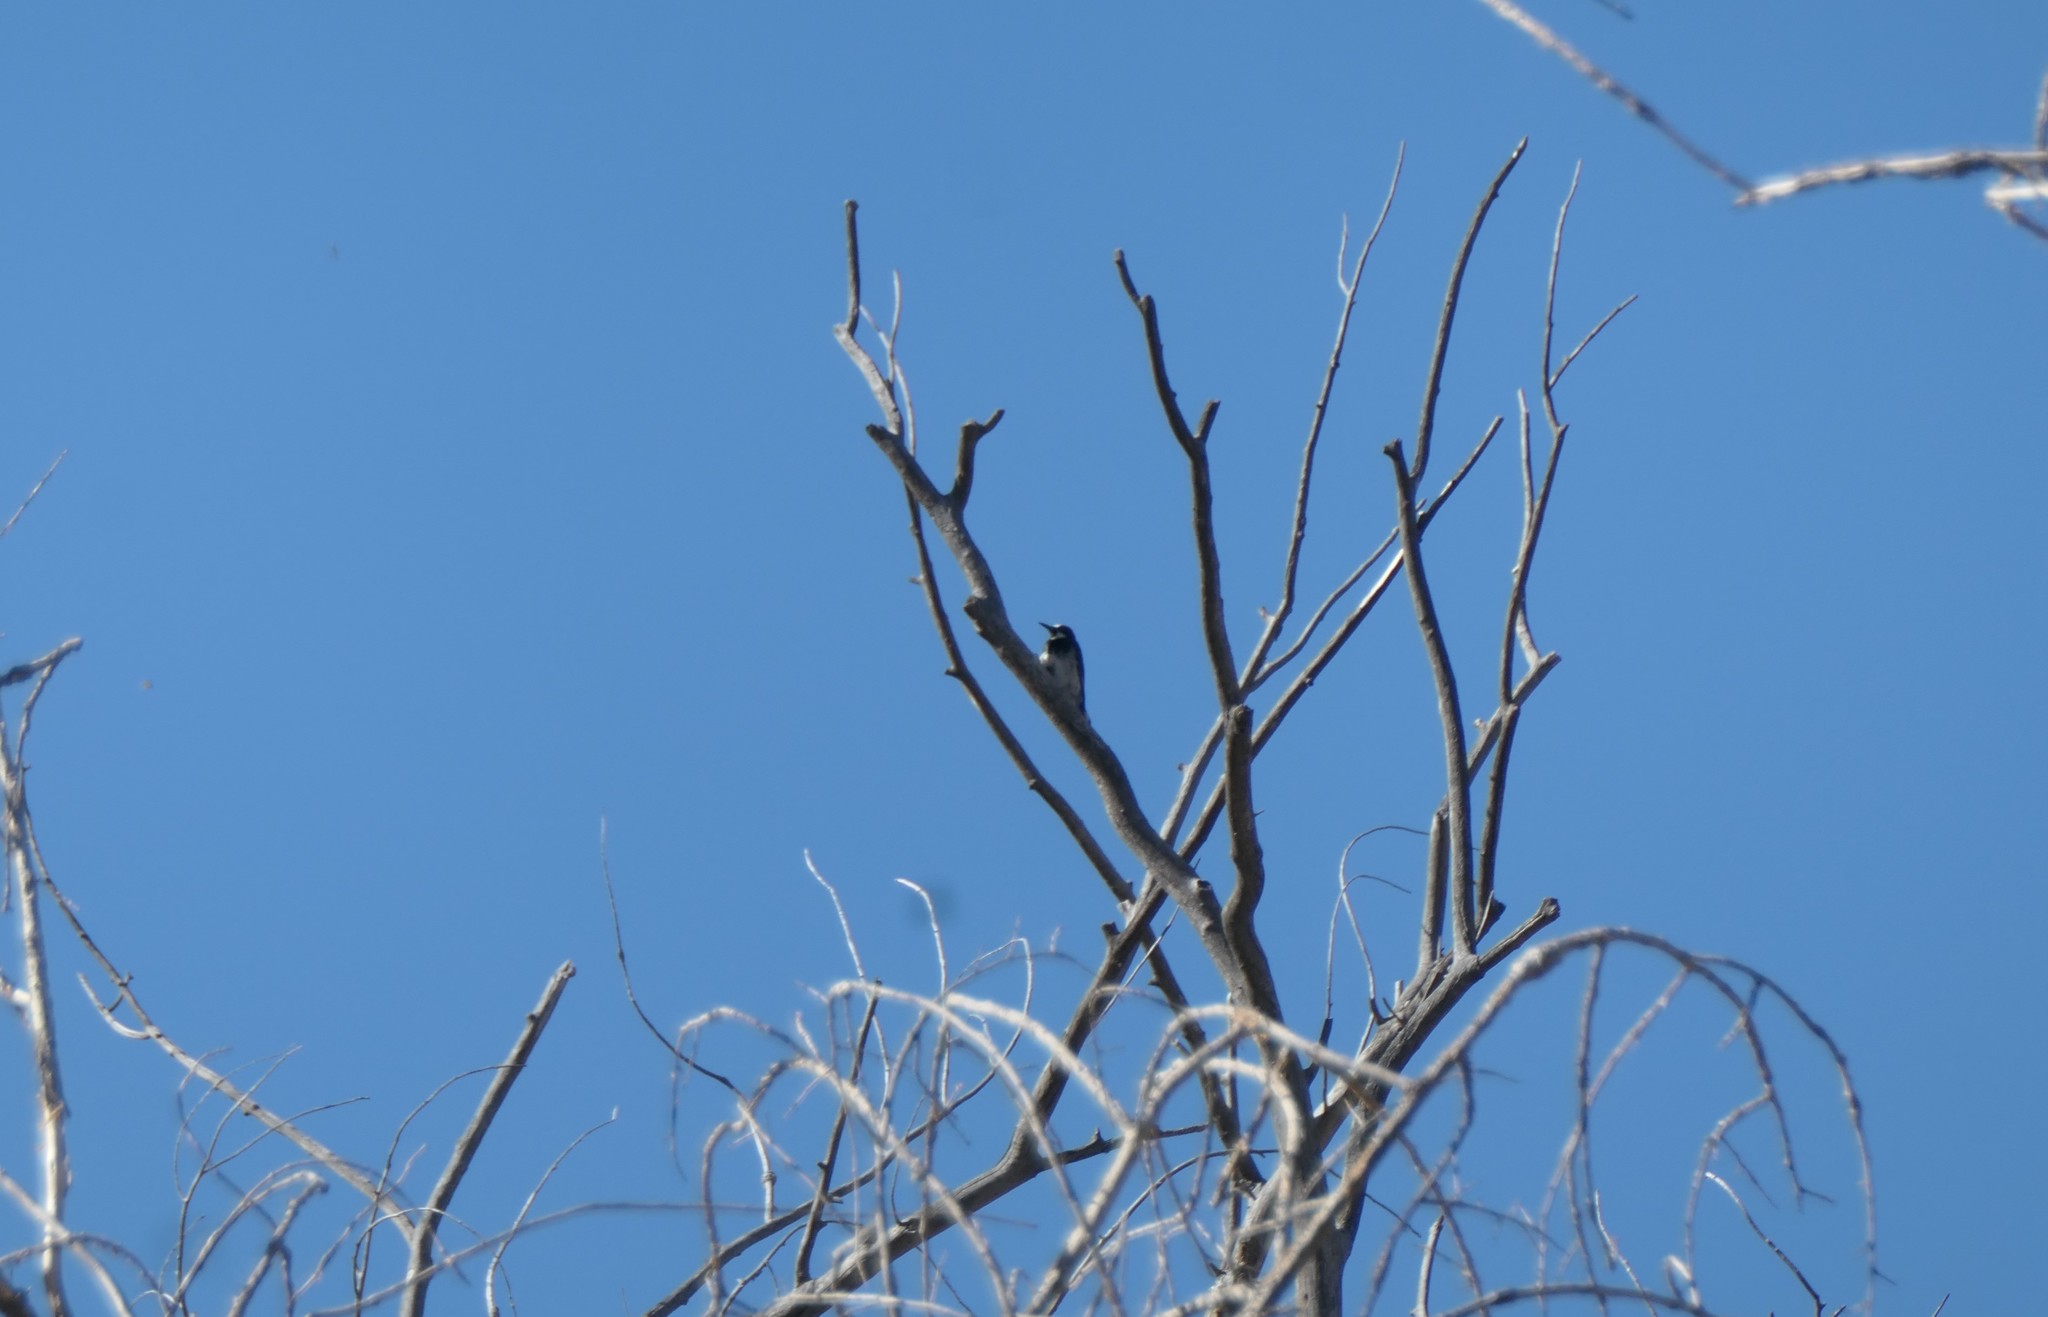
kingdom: Animalia
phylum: Chordata
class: Aves
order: Piciformes
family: Picidae
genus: Melanerpes
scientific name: Melanerpes formicivorus
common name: Acorn woodpecker
